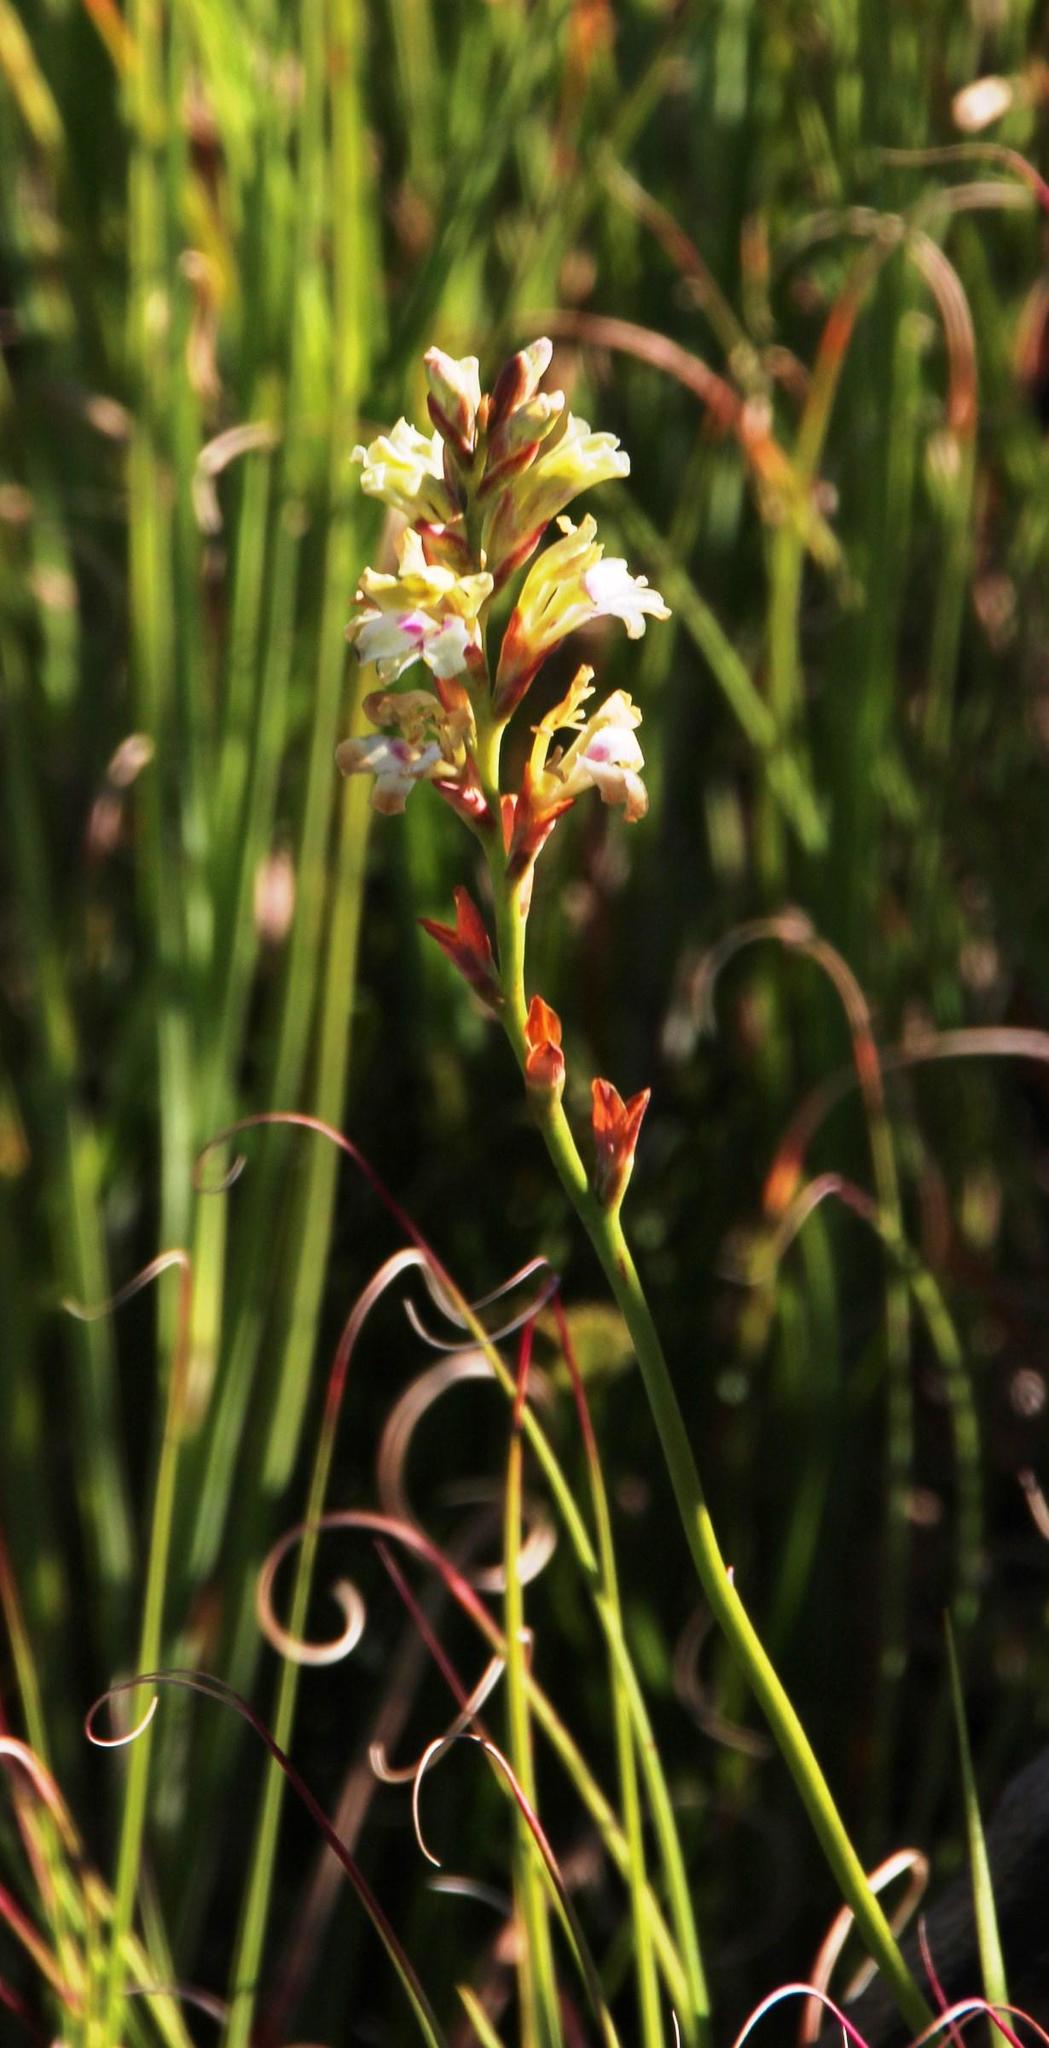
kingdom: Plantae
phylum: Tracheophyta
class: Liliopsida
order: Asparagales
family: Iridaceae
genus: Tritoniopsis
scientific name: Tritoniopsis unguicularis
